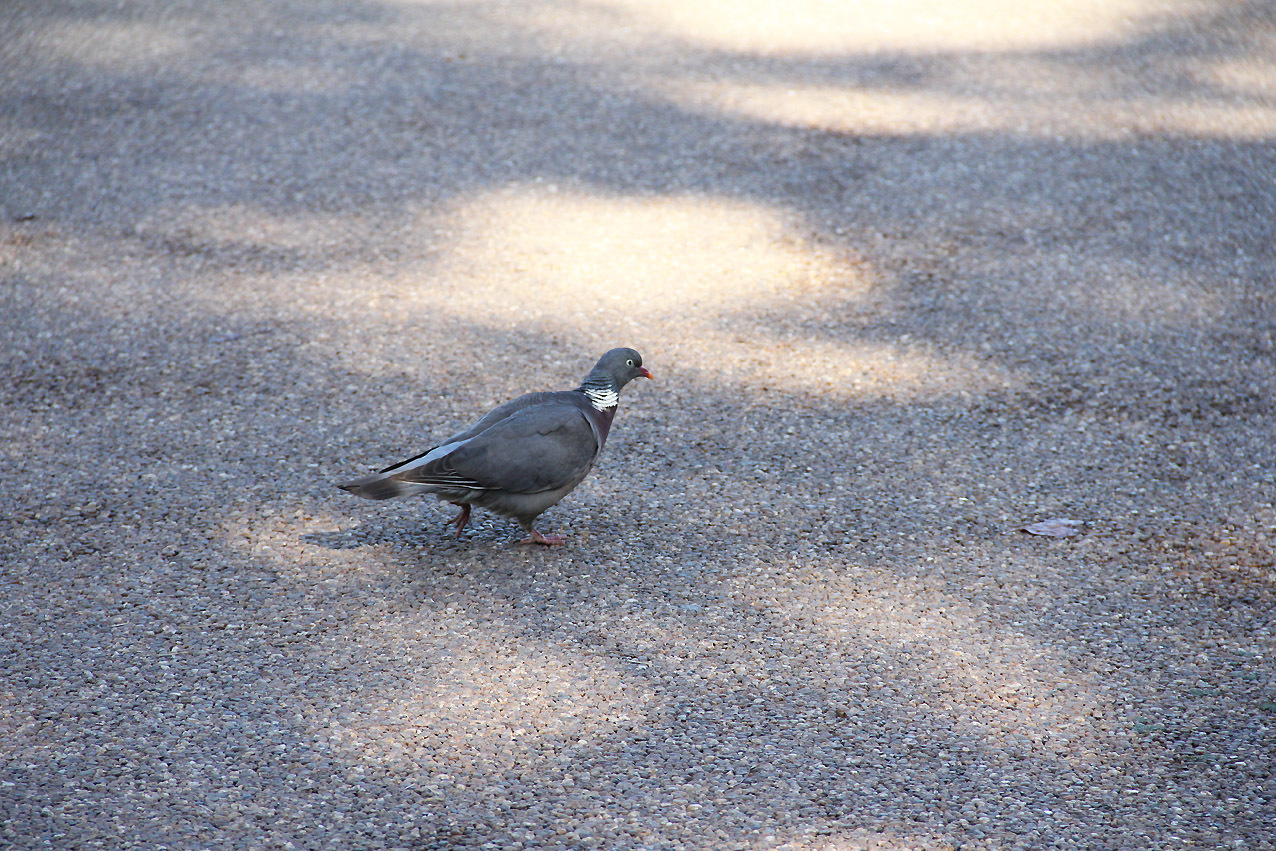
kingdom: Animalia
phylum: Chordata
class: Aves
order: Columbiformes
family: Columbidae
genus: Columba
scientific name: Columba palumbus
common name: Common wood pigeon
